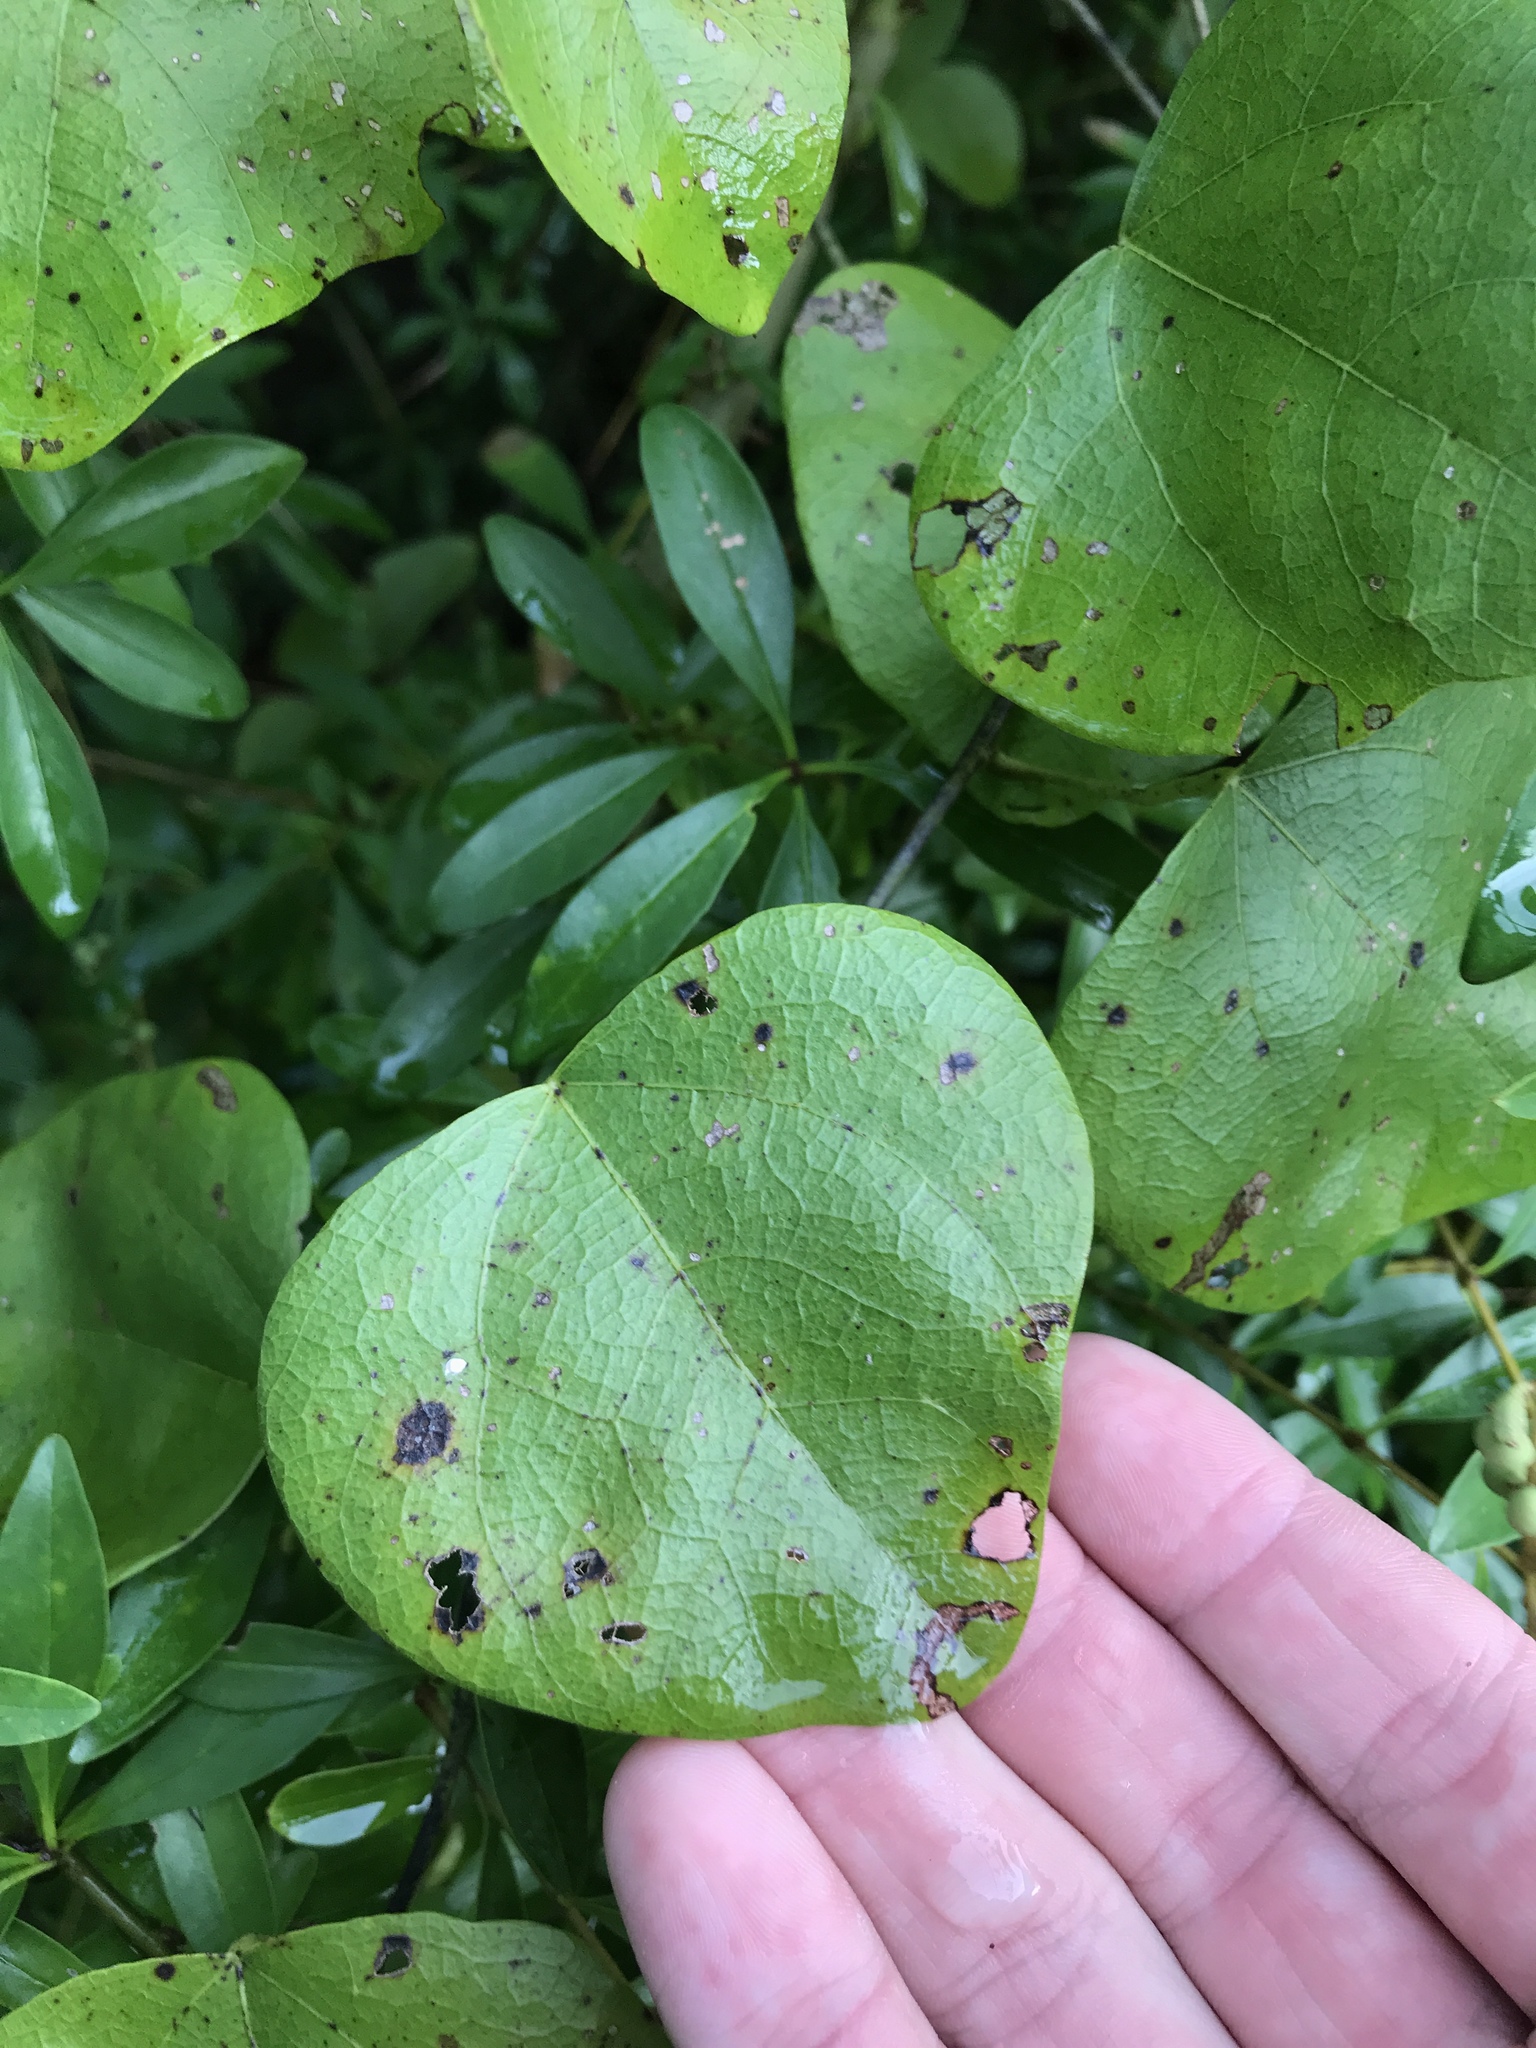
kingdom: Plantae
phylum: Tracheophyta
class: Magnoliopsida
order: Ranunculales
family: Menispermaceae
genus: Cocculus
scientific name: Cocculus carolinus
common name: Carolina moonseed
